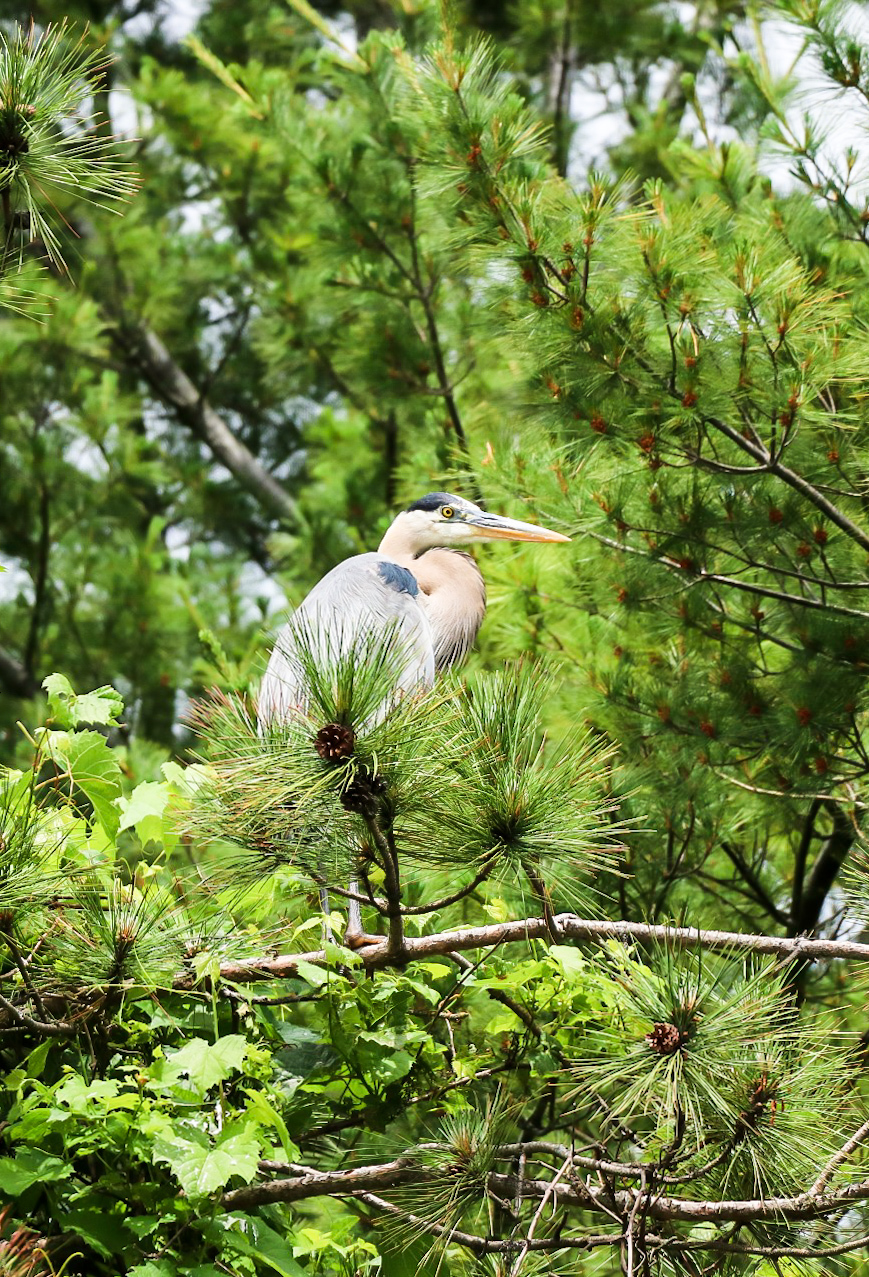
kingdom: Animalia
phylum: Chordata
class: Aves
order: Pelecaniformes
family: Ardeidae
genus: Ardea
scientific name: Ardea herodias
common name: Great blue heron
